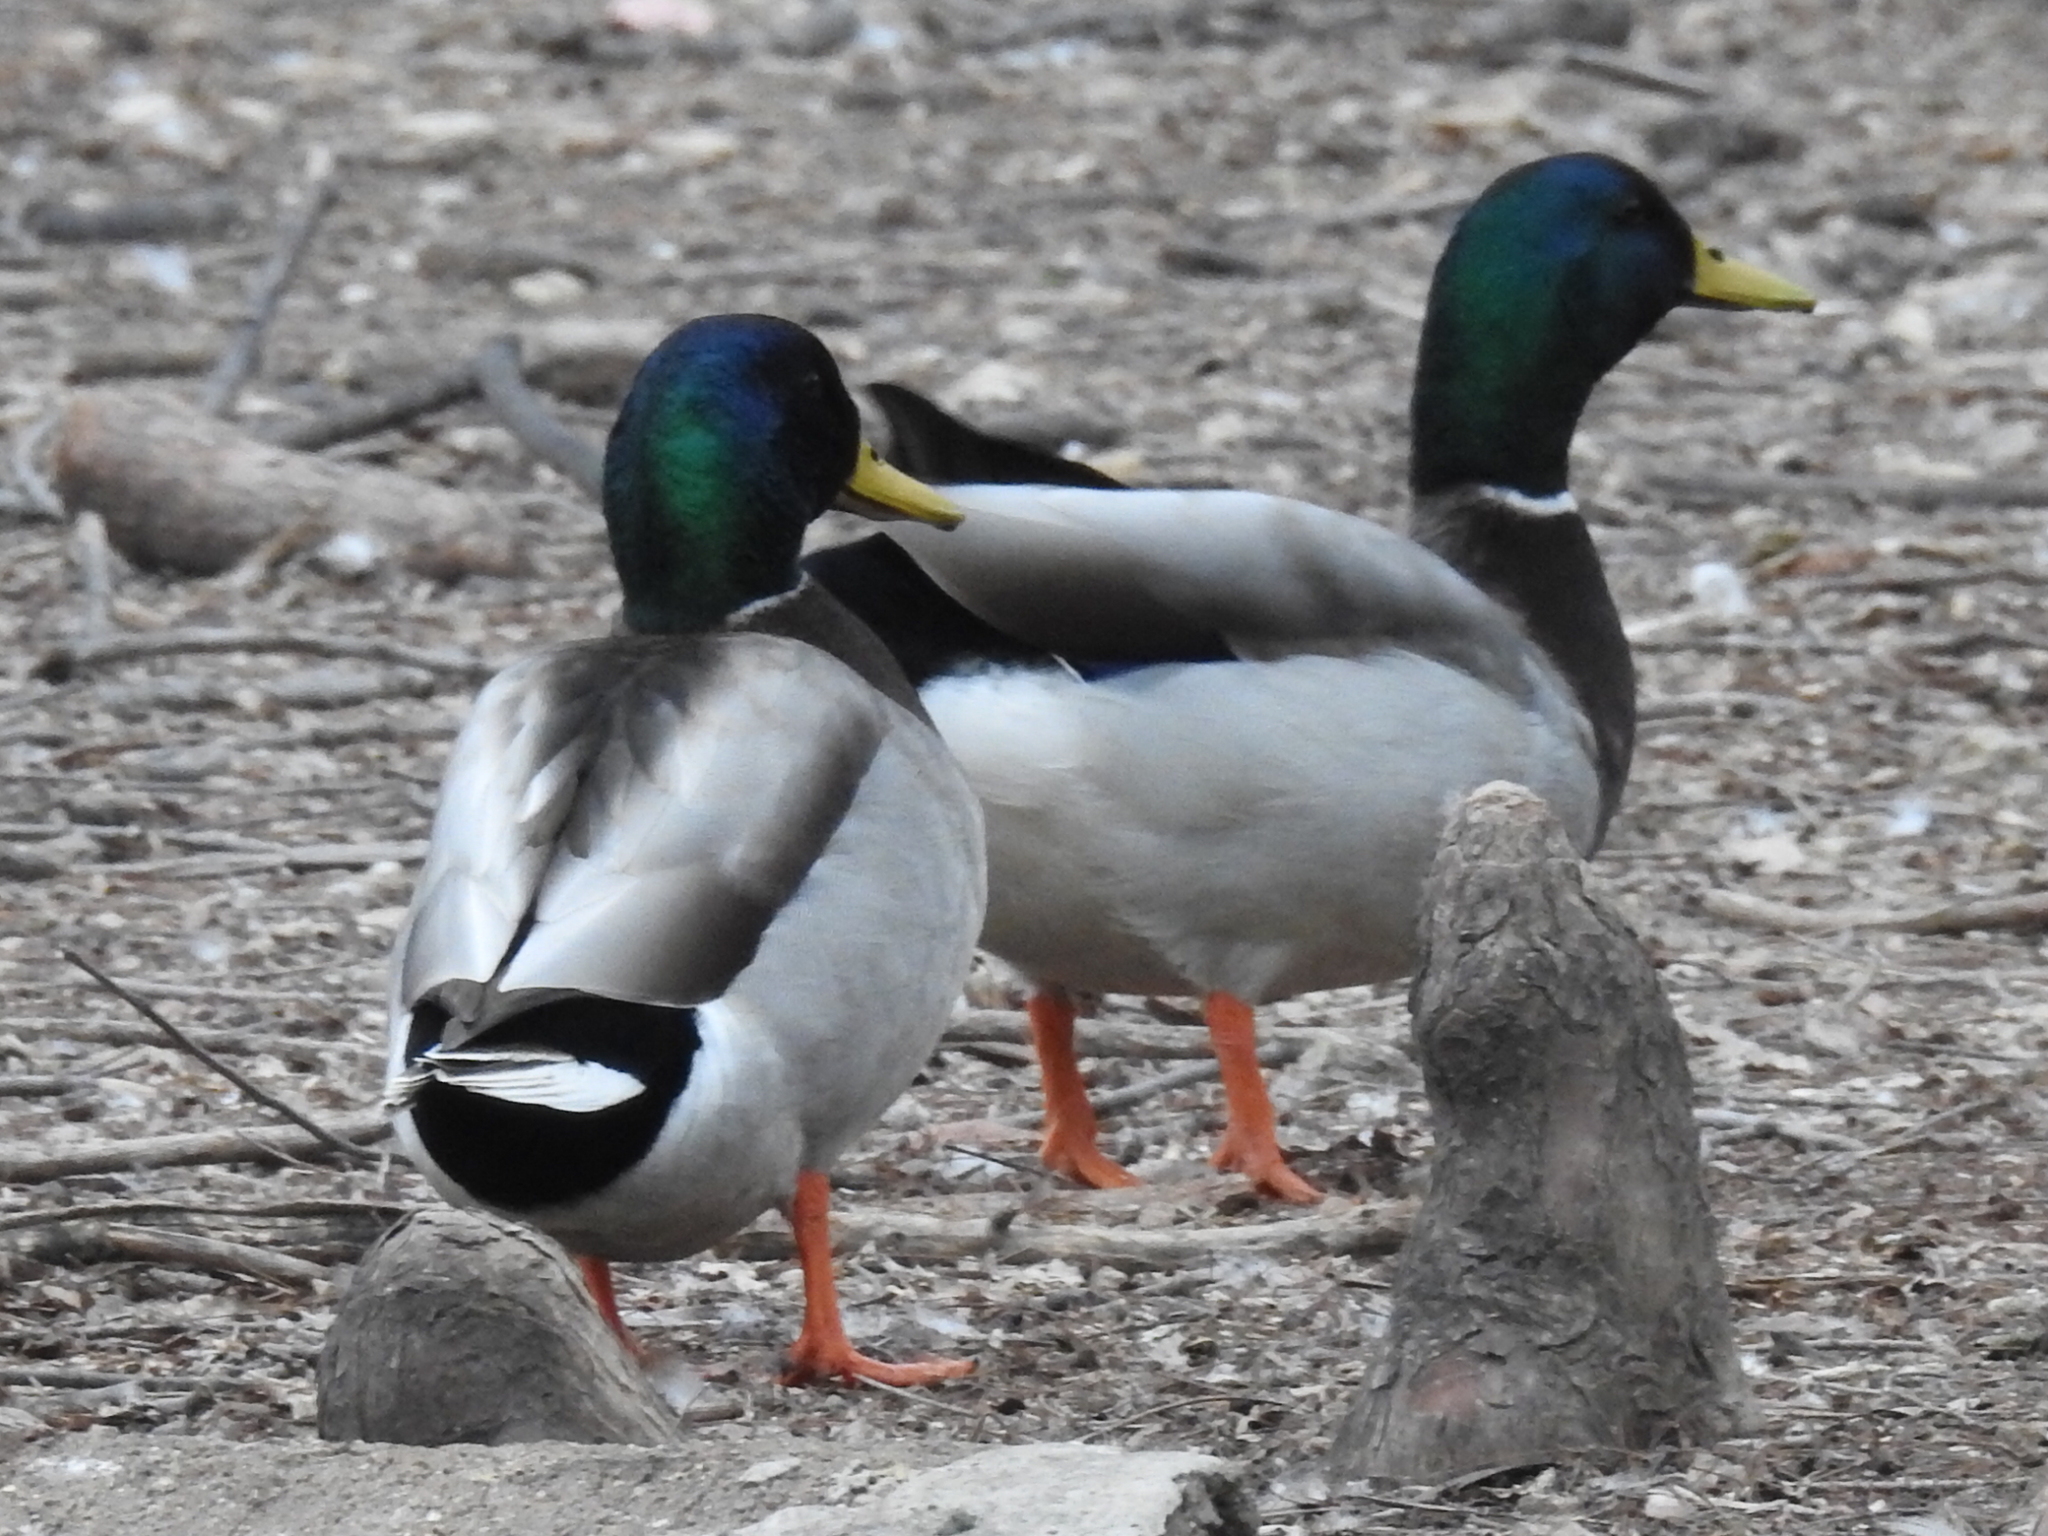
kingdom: Animalia
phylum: Chordata
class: Aves
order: Anseriformes
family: Anatidae
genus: Anas
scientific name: Anas platyrhynchos
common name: Mallard
